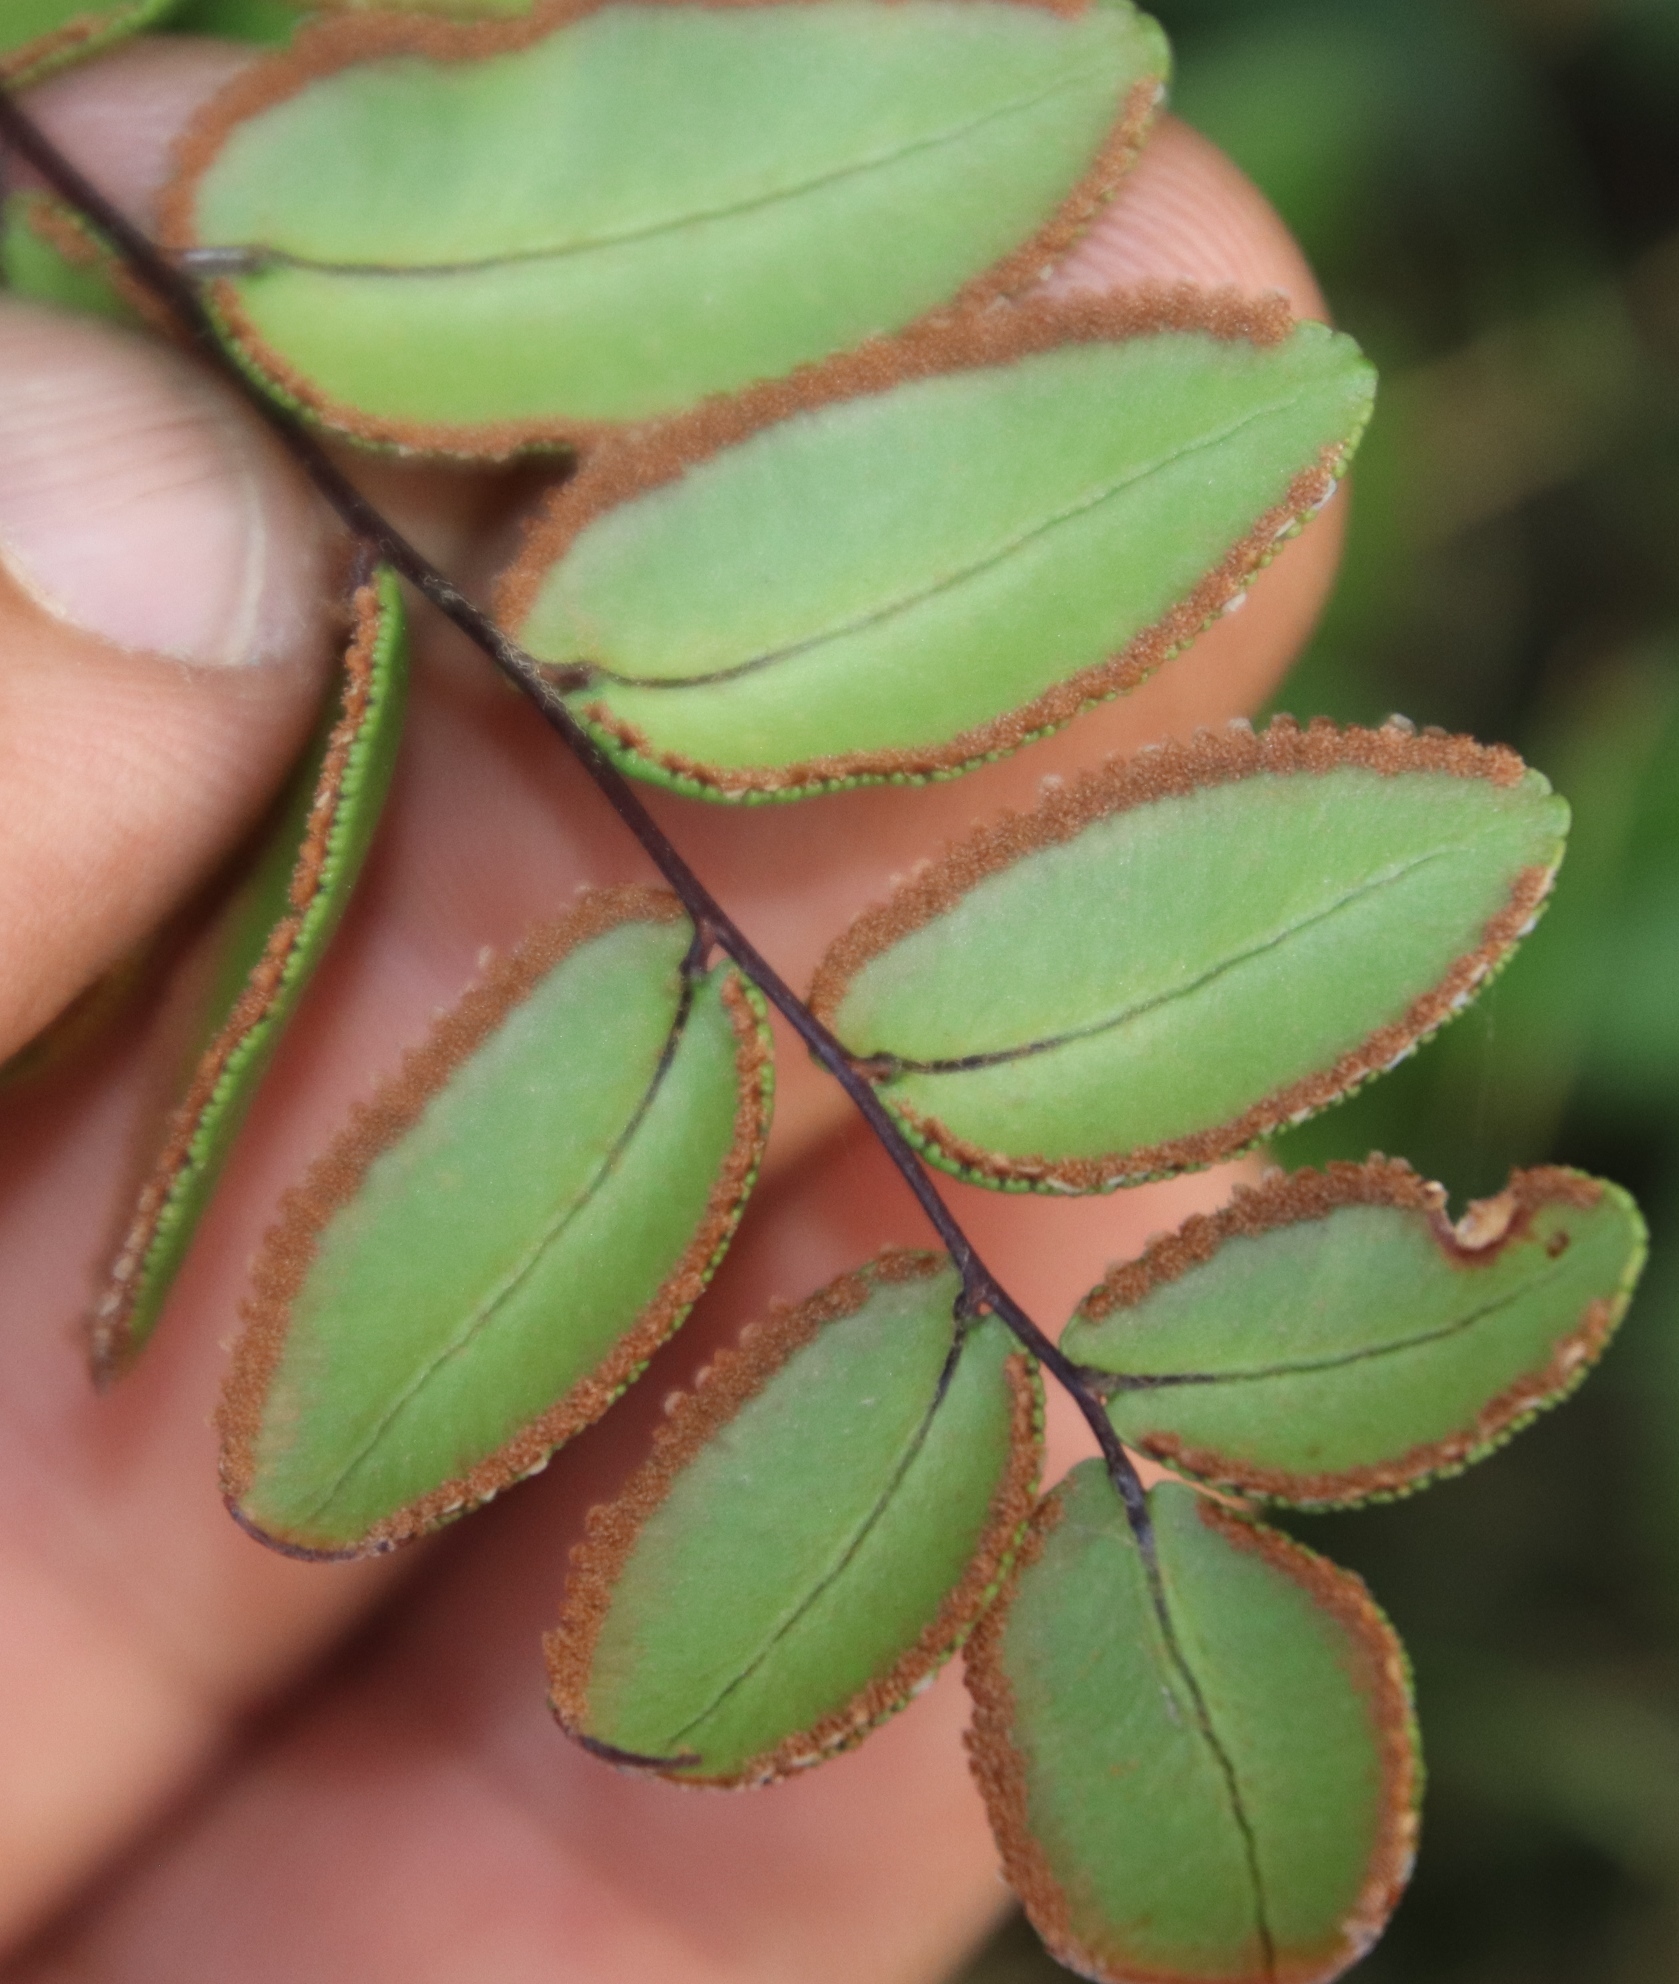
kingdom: Plantae
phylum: Tracheophyta
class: Polypodiopsida
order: Polypodiales
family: Pteridaceae
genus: Pellaea
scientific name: Pellaea pteroides
